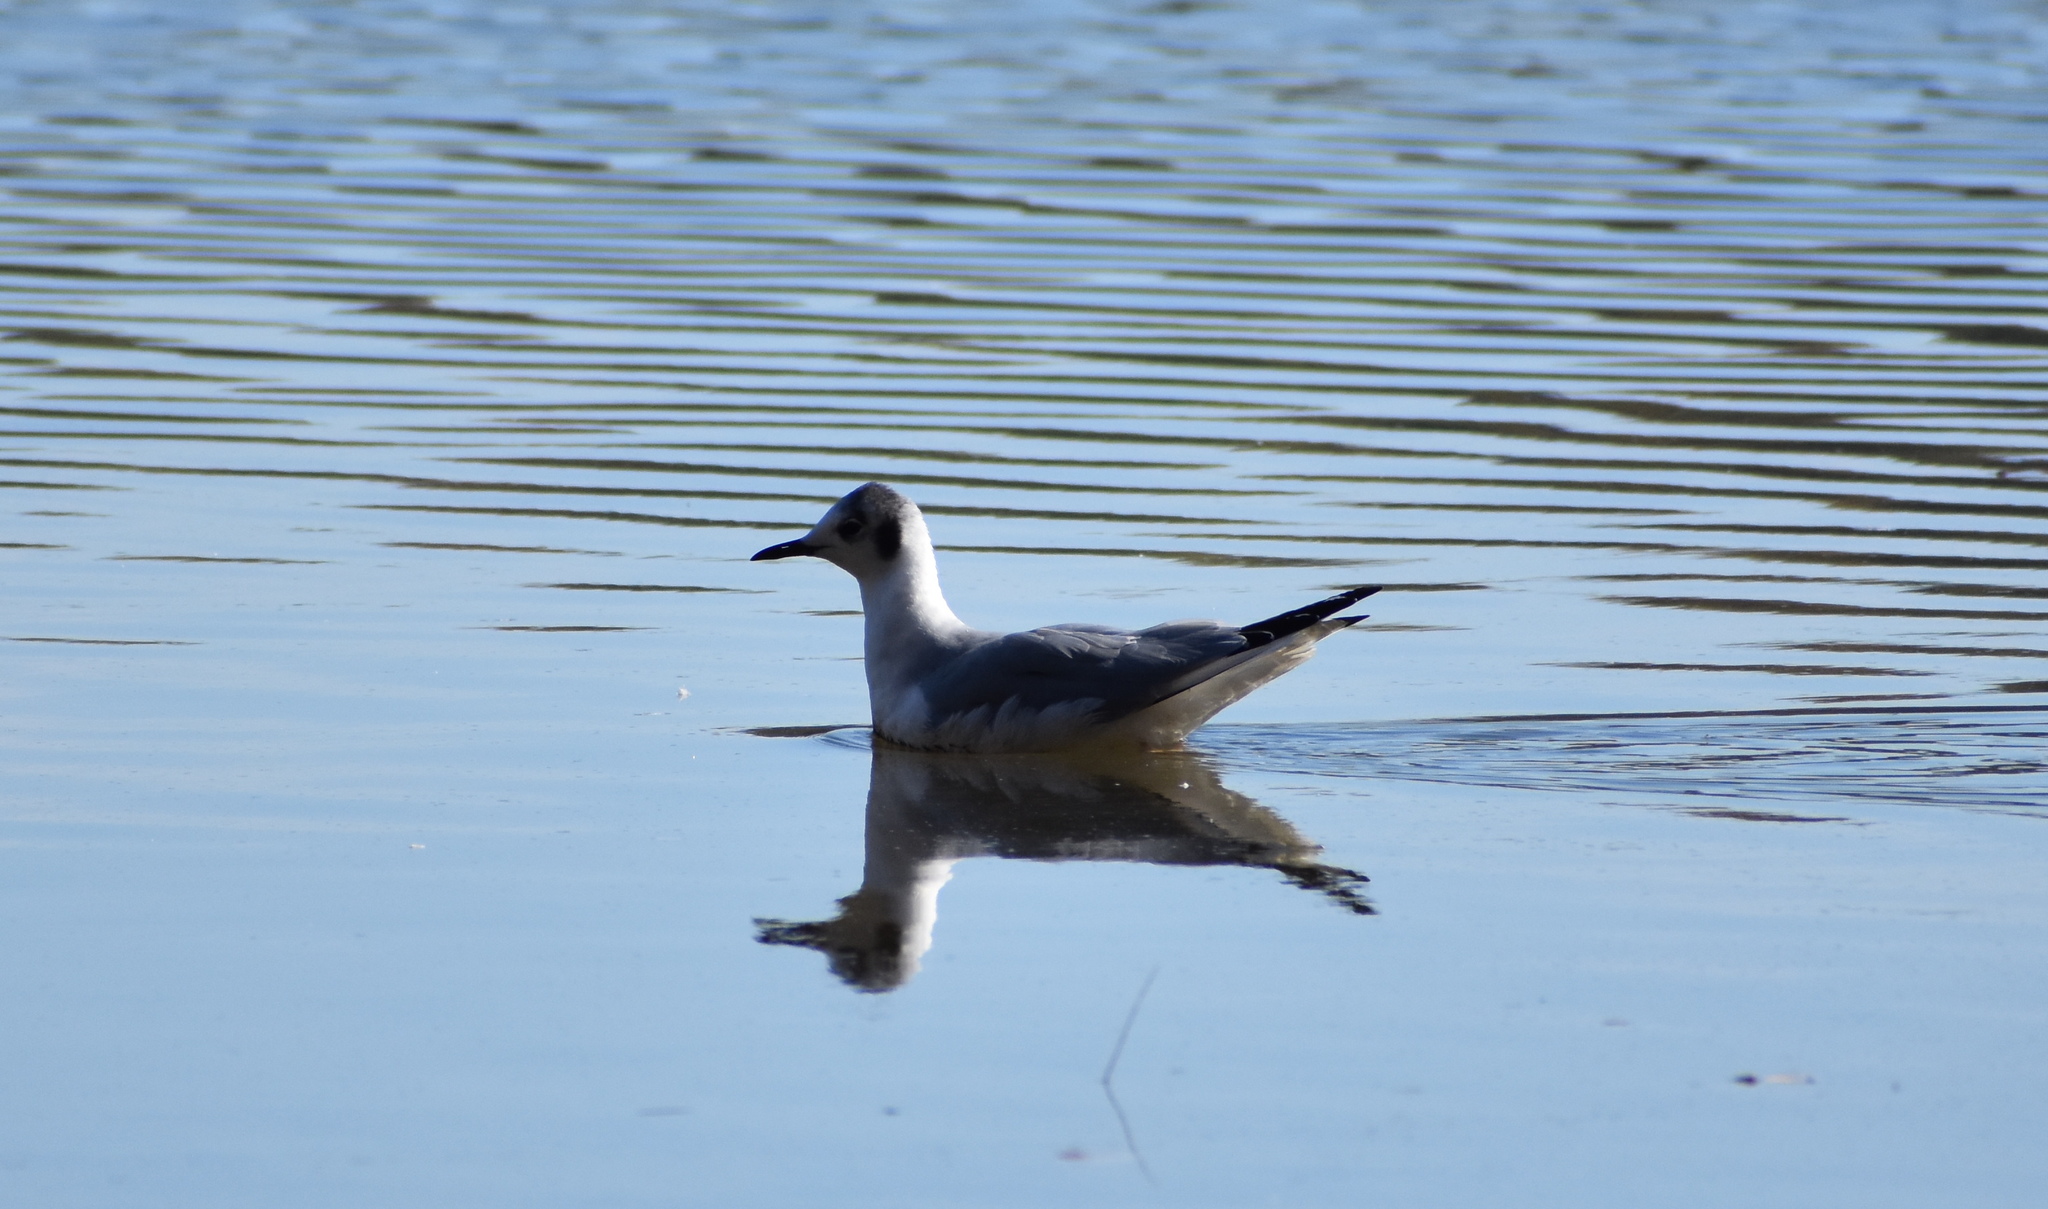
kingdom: Animalia
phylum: Chordata
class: Aves
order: Charadriiformes
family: Laridae
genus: Chroicocephalus
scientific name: Chroicocephalus philadelphia
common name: Bonaparte's gull
